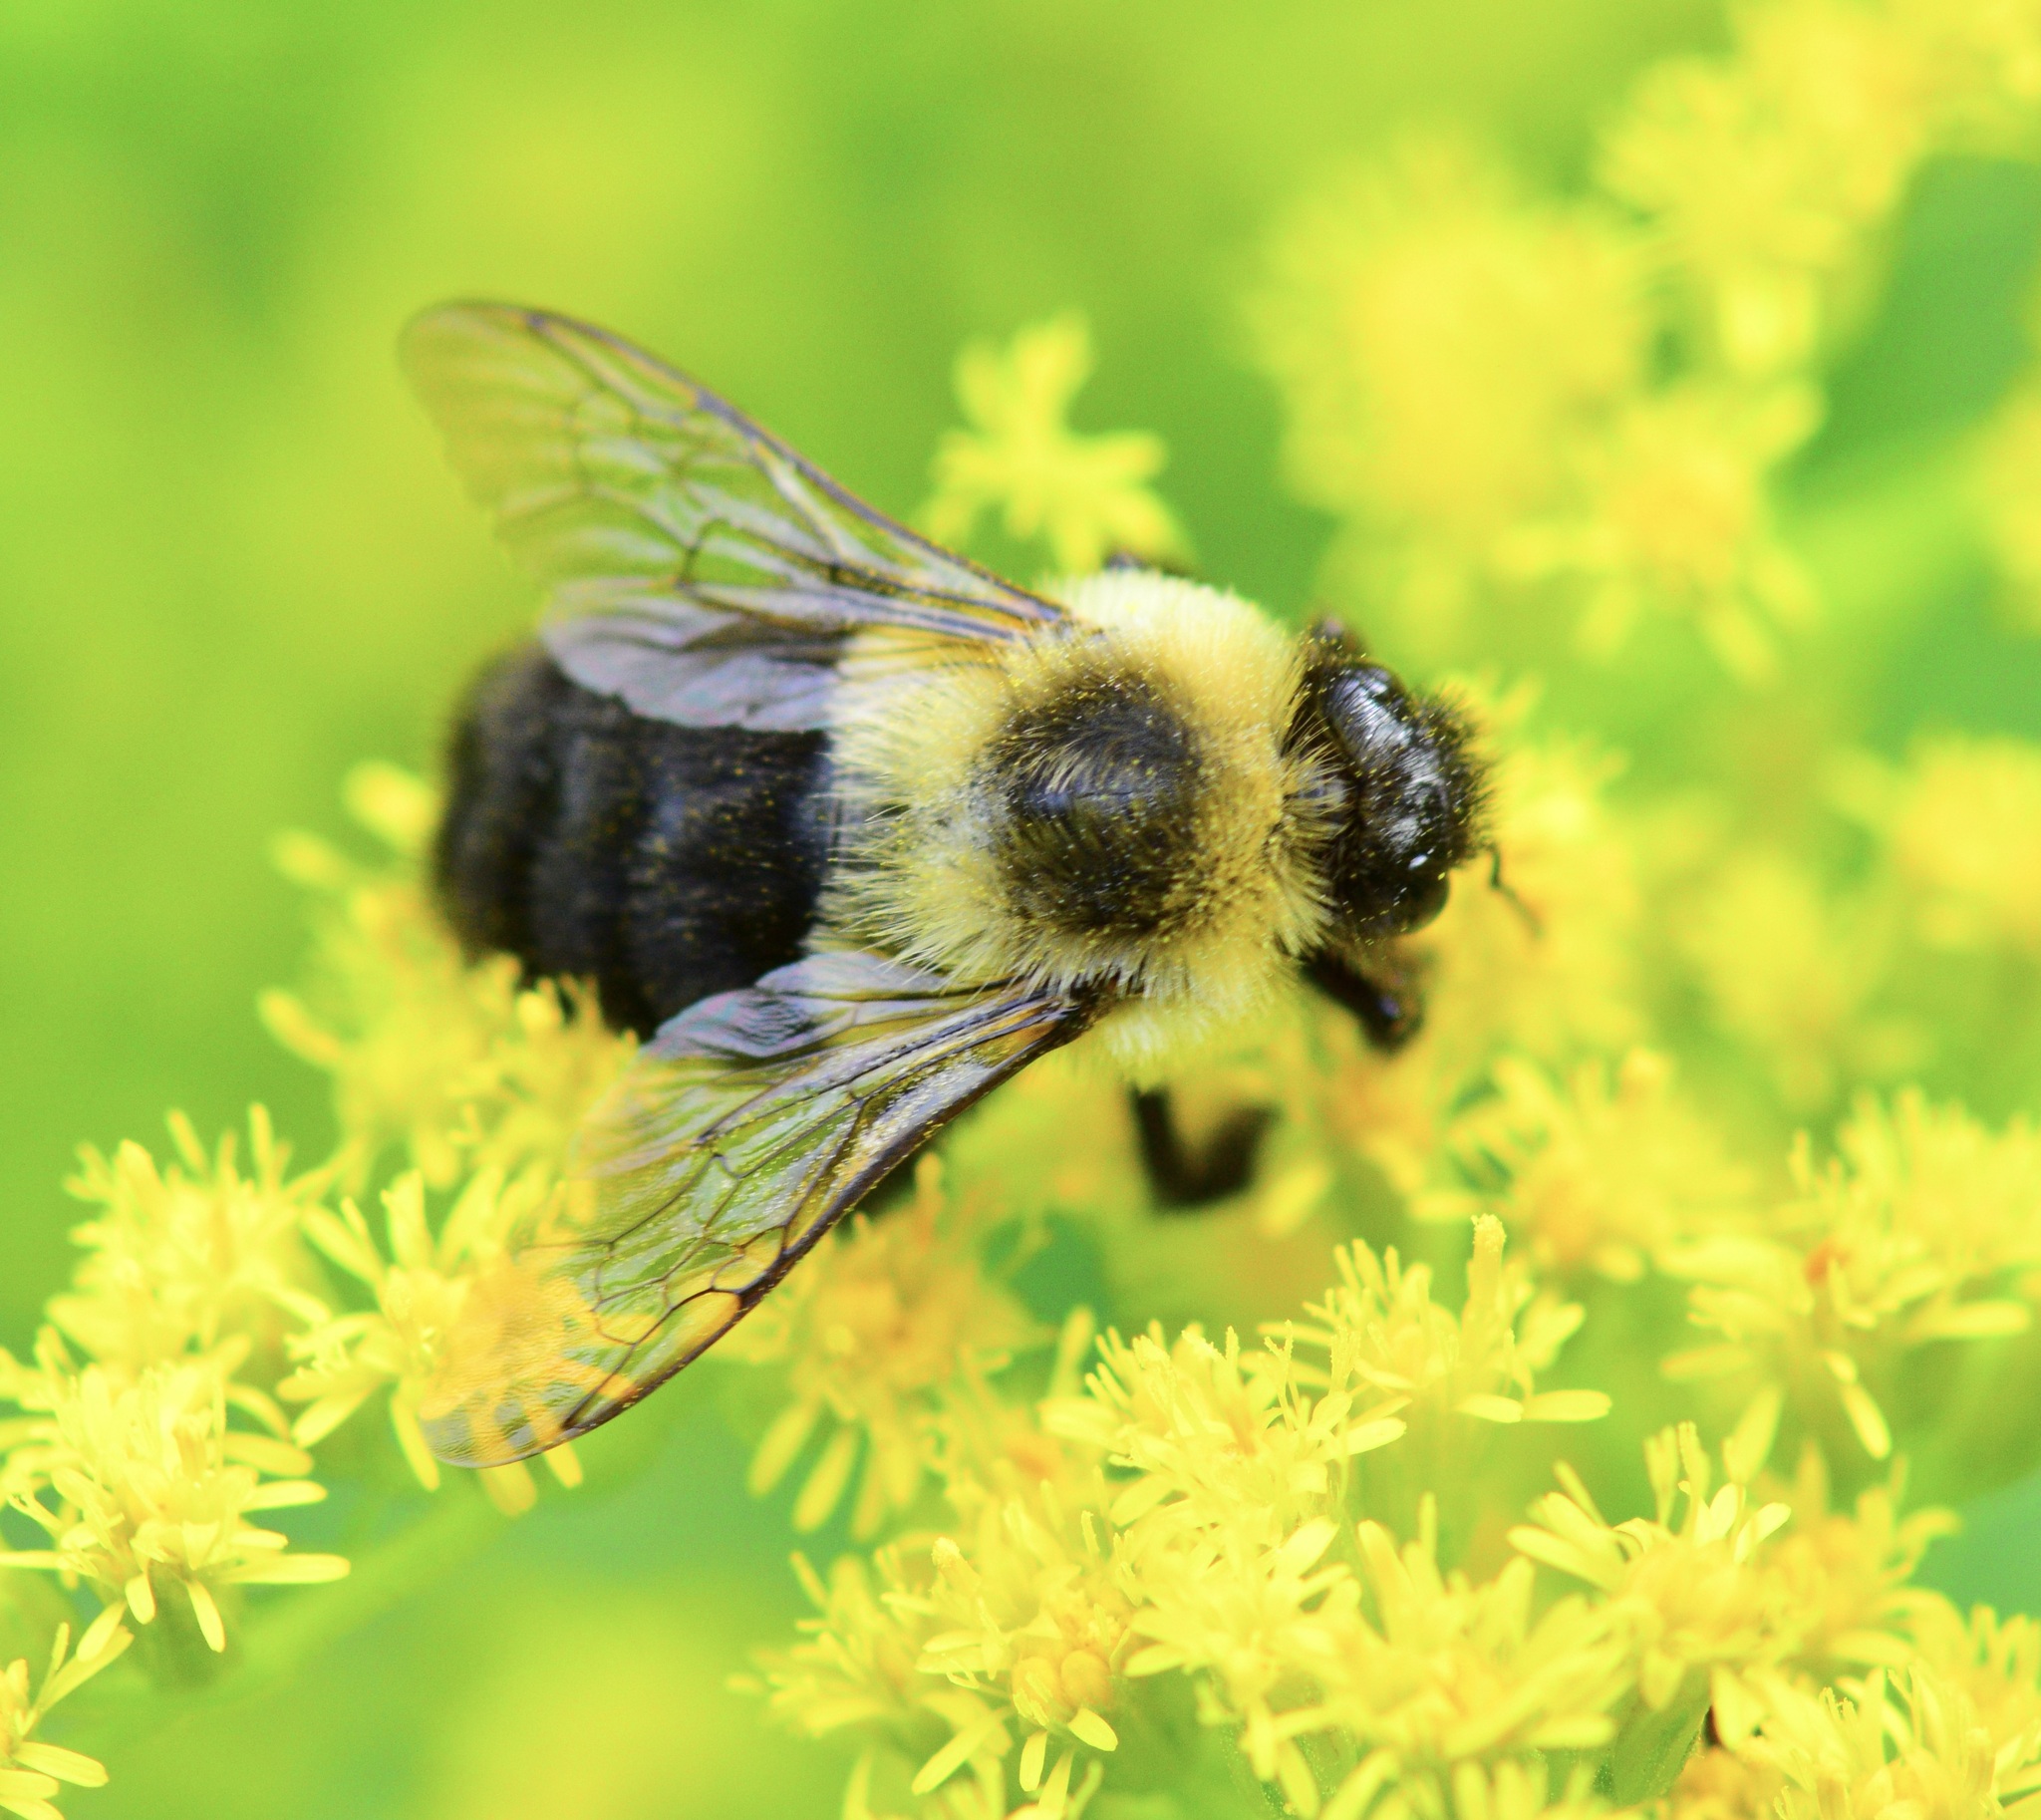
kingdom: Animalia
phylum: Arthropoda
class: Insecta
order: Hymenoptera
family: Apidae
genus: Bombus
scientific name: Bombus impatiens
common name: Common eastern bumble bee
